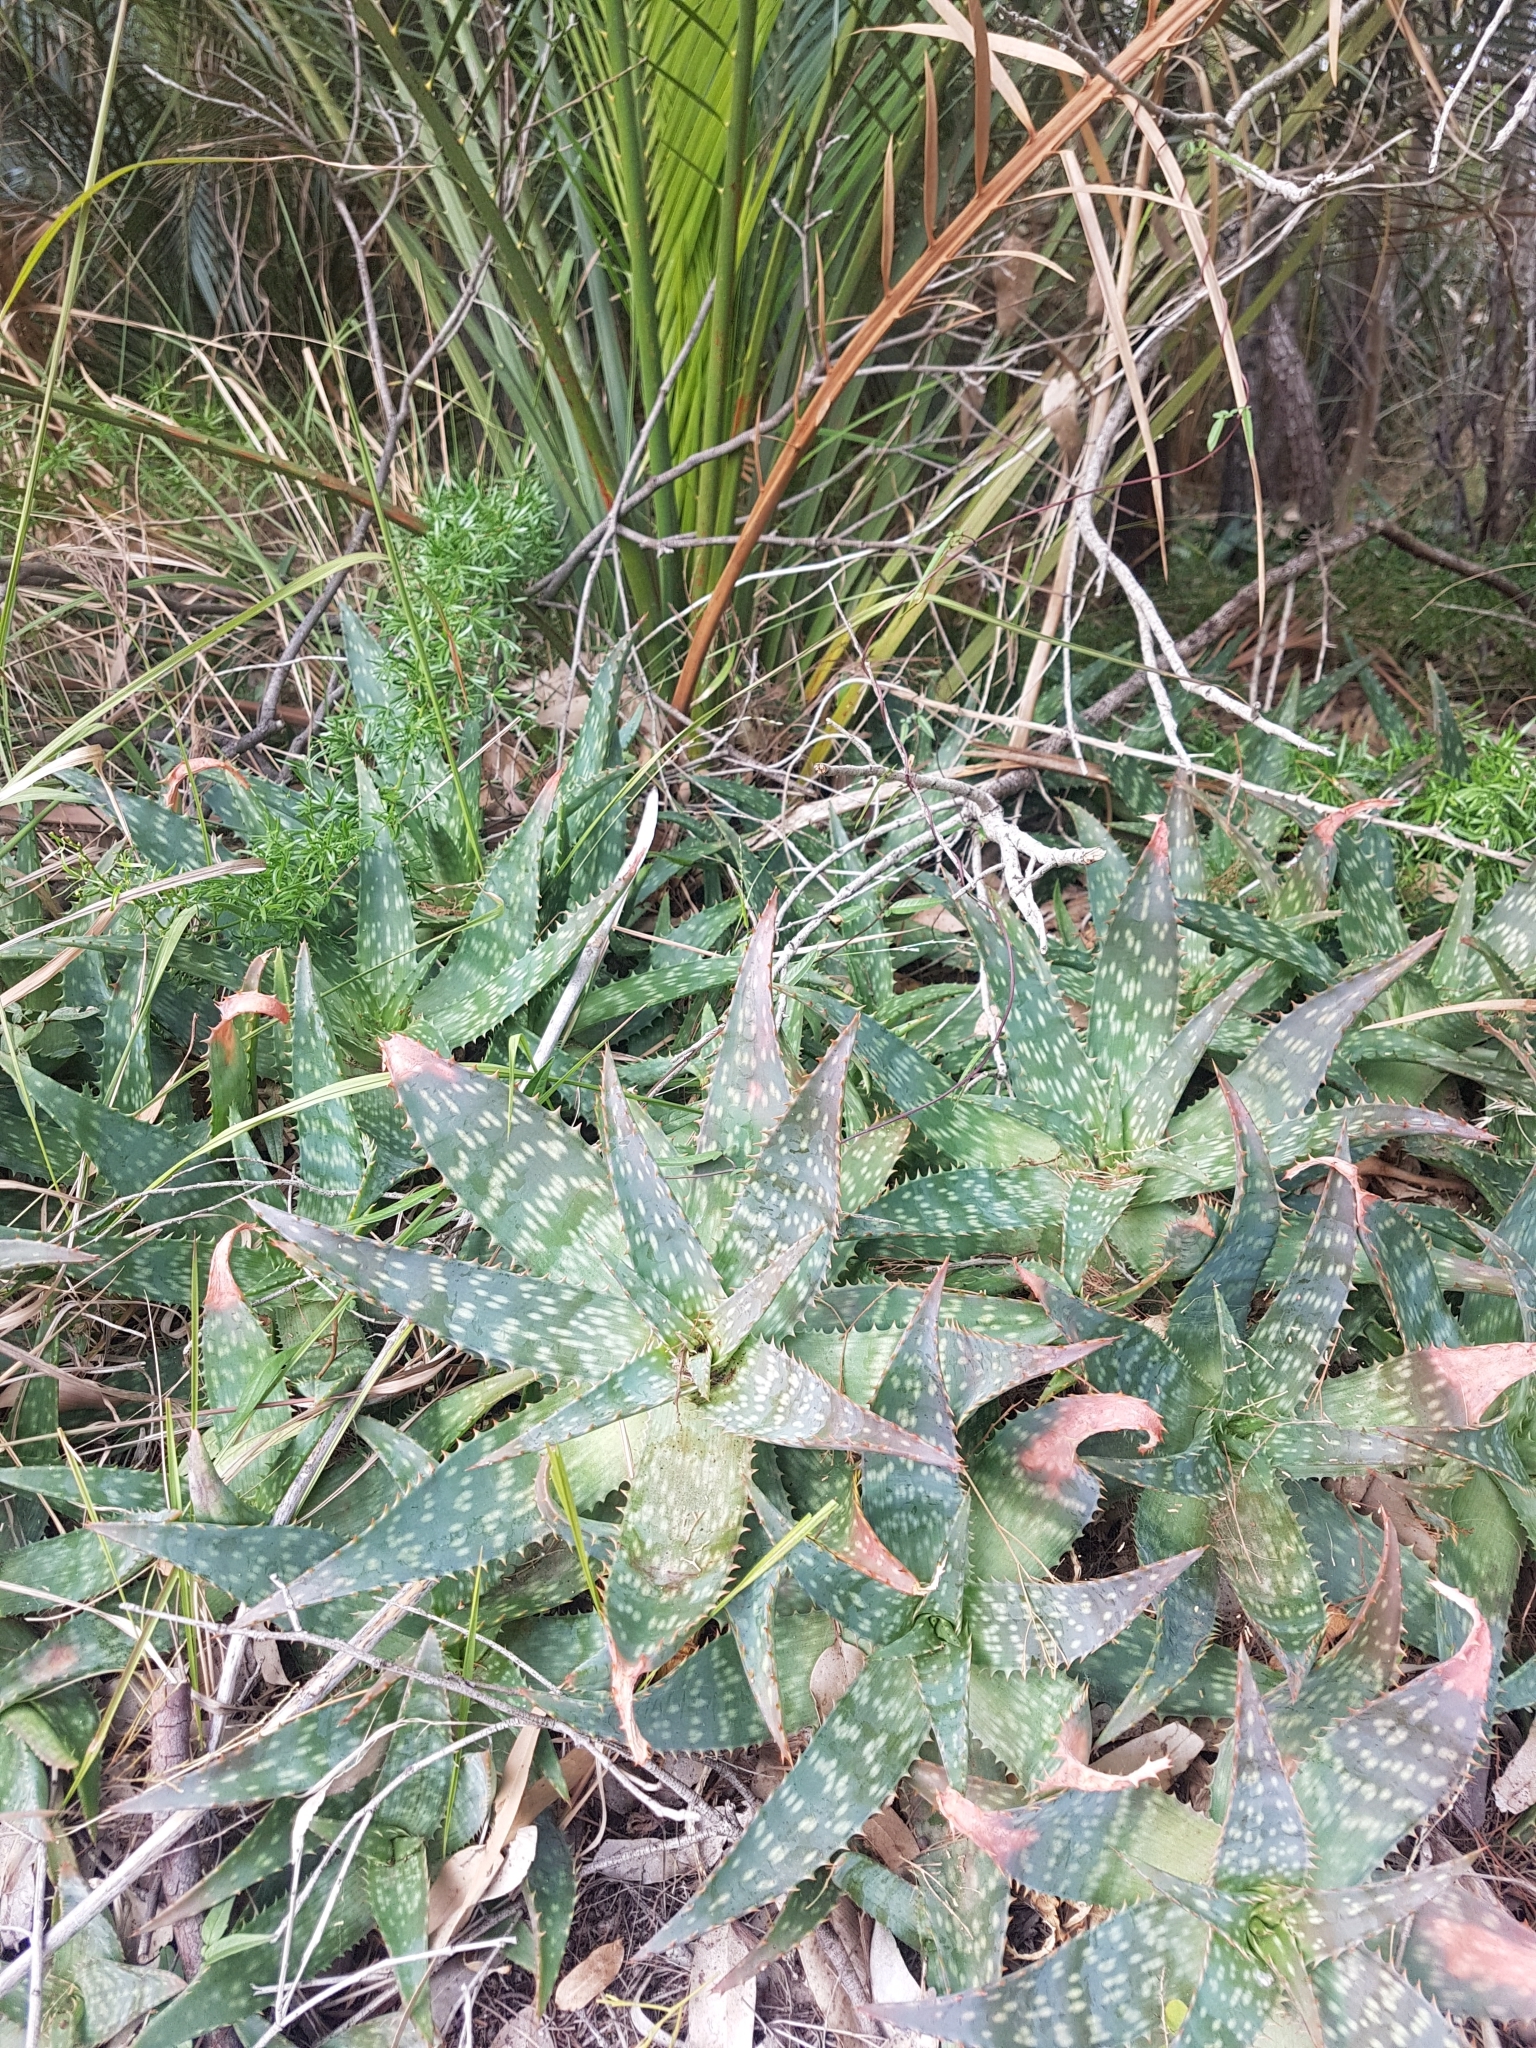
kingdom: Plantae
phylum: Tracheophyta
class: Liliopsida
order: Asparagales
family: Asphodelaceae
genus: Aloe
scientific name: Aloe maculata
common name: Broadleaf aloe
